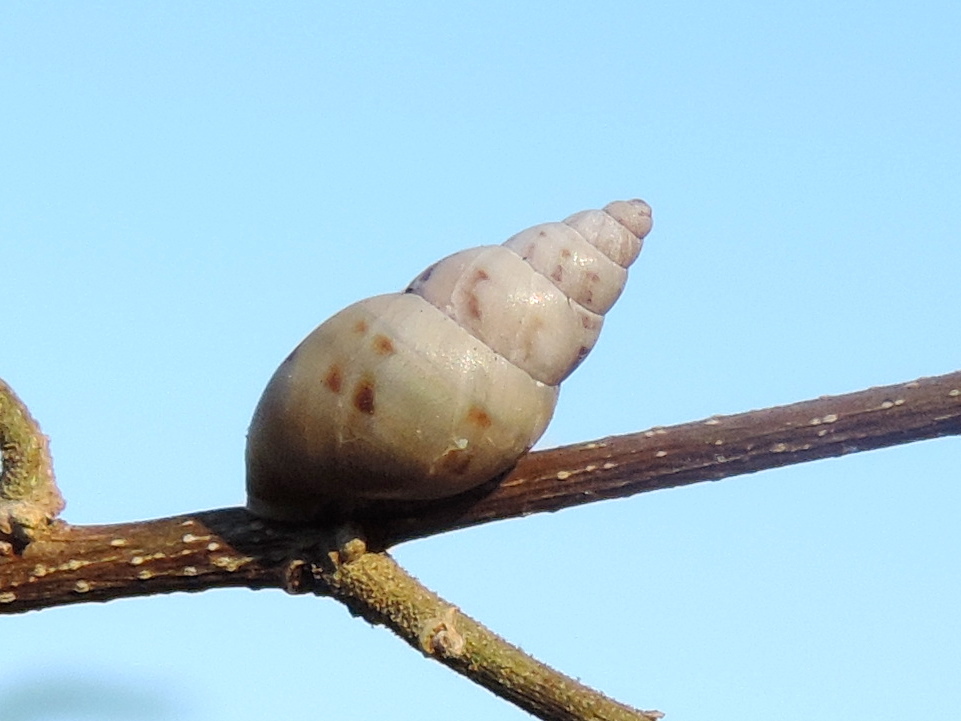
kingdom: Animalia
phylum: Mollusca
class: Gastropoda
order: Stylommatophora
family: Bulimulidae
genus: Rabdotus
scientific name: Rabdotus
